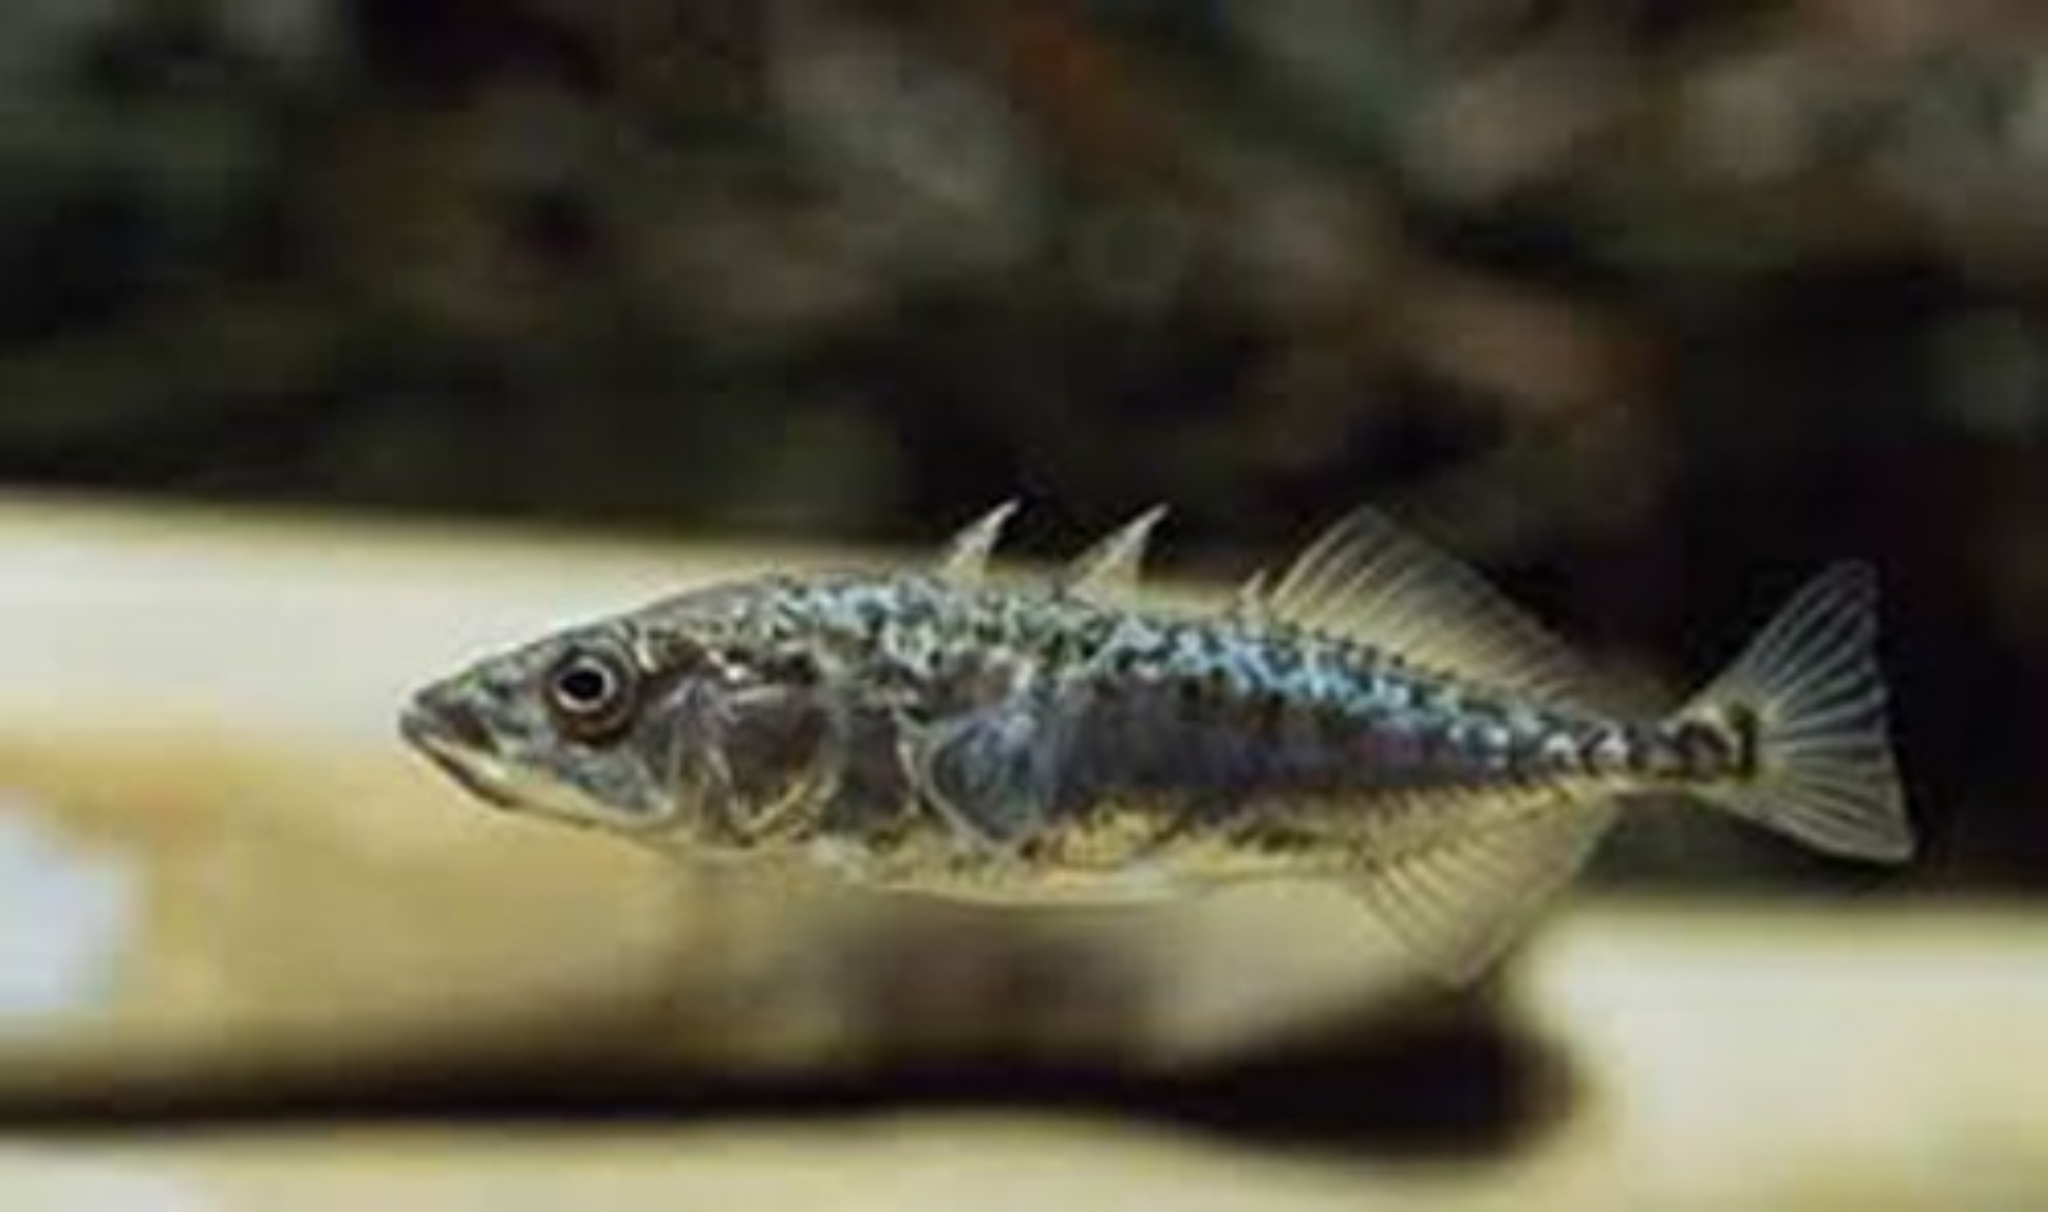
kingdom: Animalia
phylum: Chordata
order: Gasterosteiformes
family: Gasterosteidae
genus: Gasterosteus
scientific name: Gasterosteus aculeatus
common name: Three-spined stickleback
